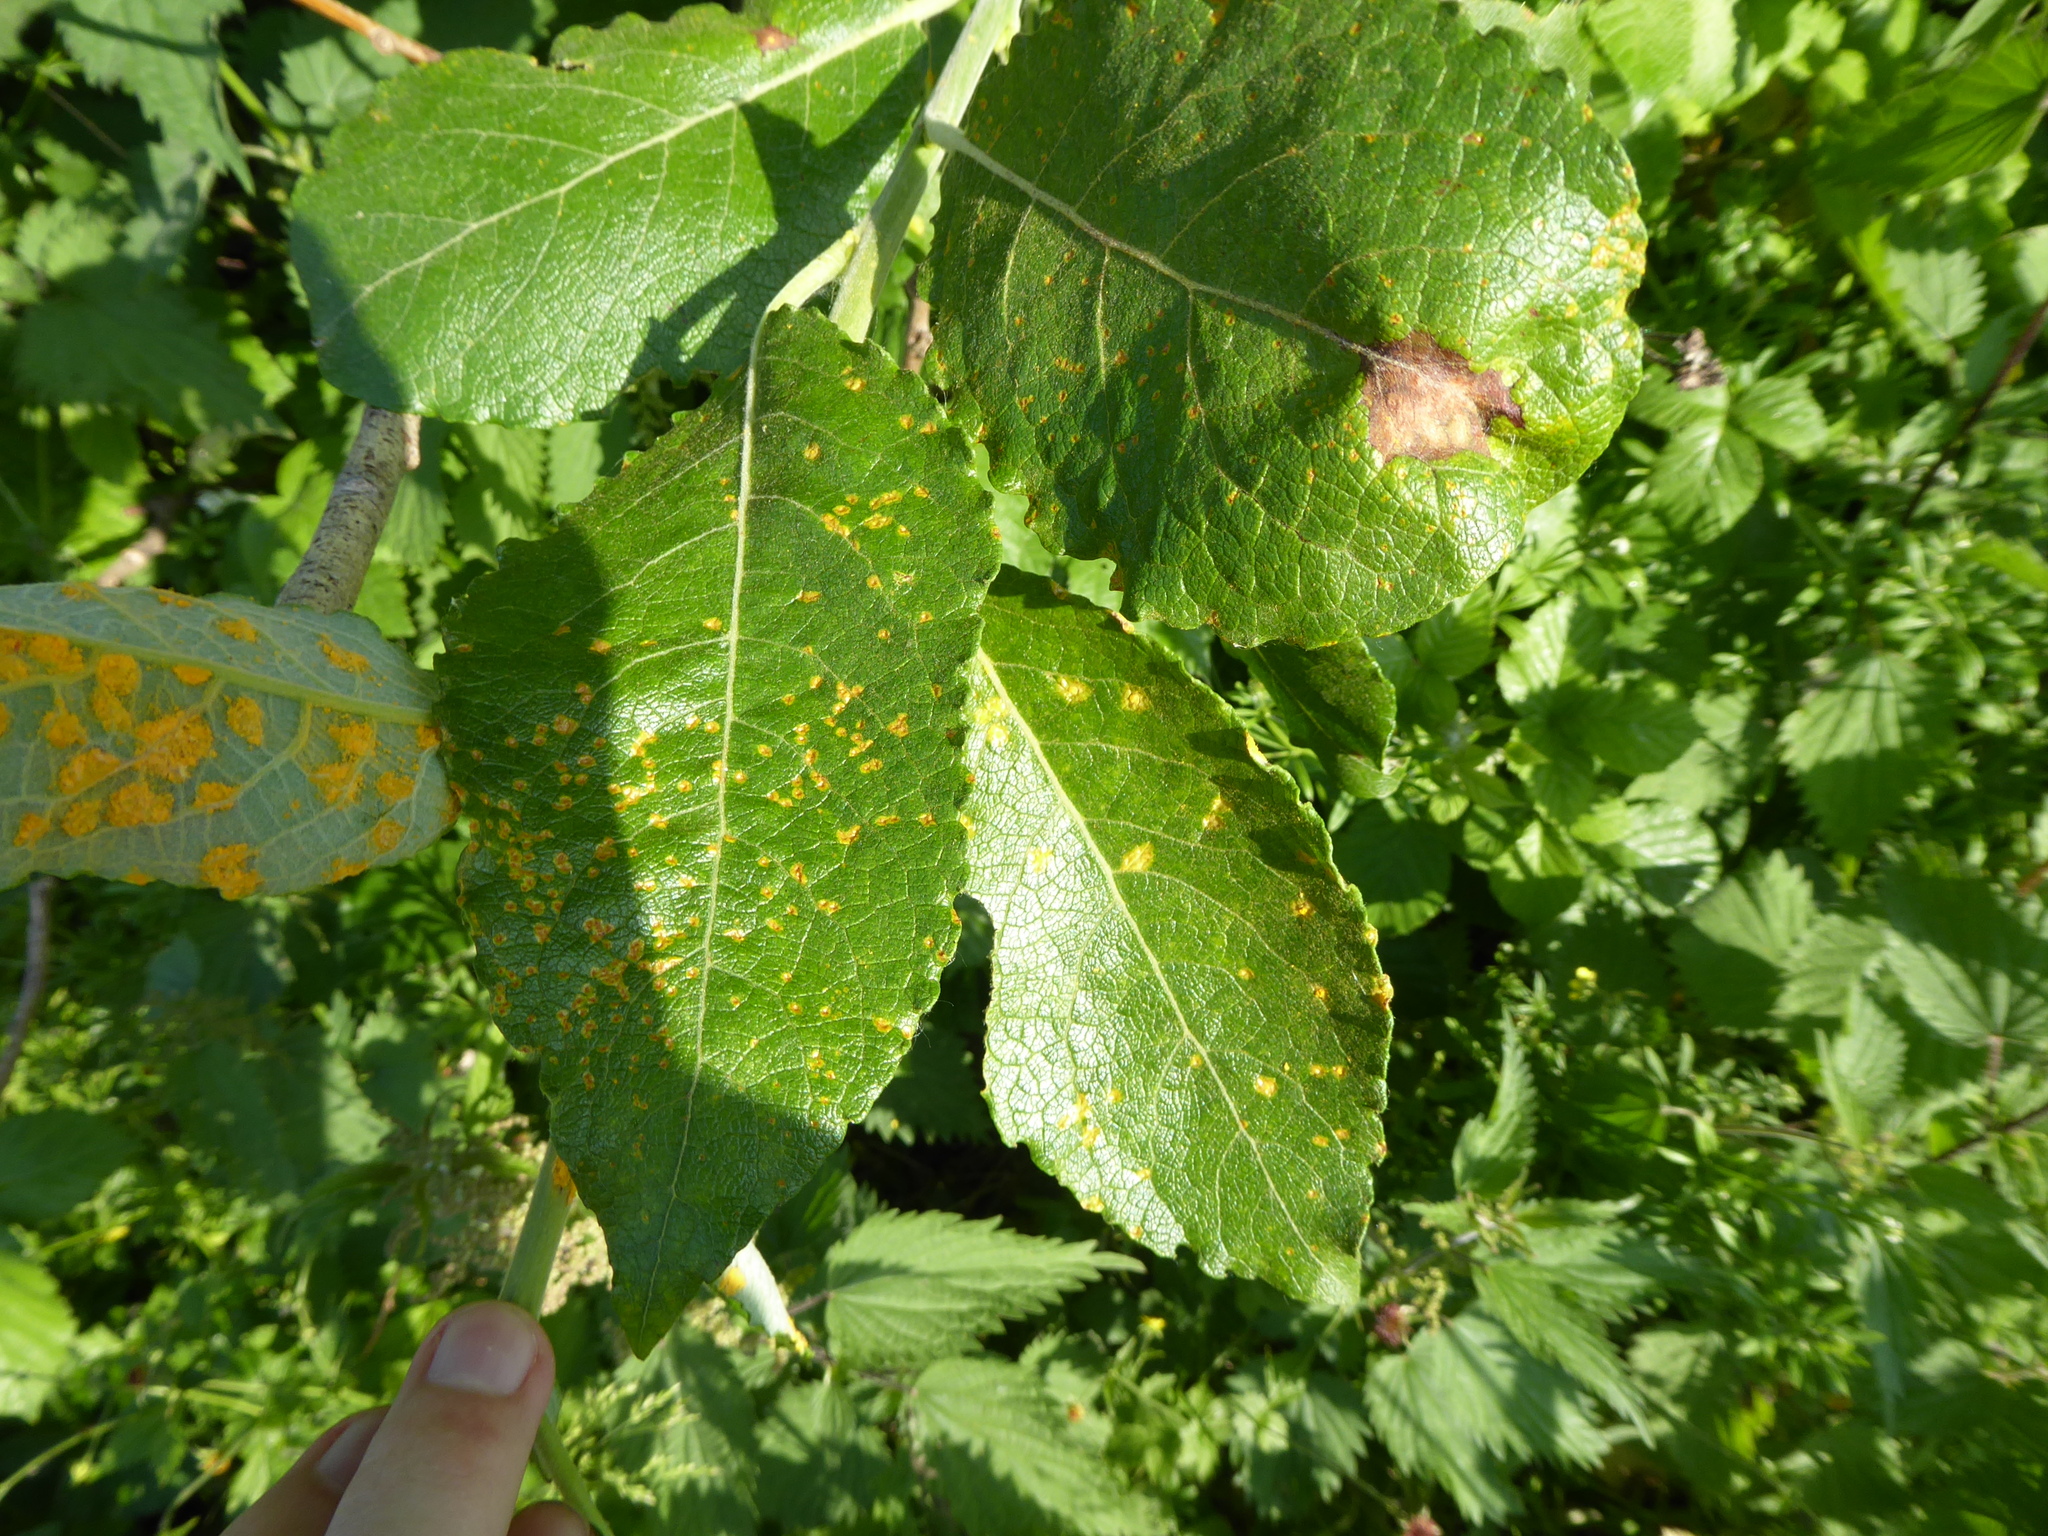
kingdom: Fungi
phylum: Basidiomycota
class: Pucciniomycetes
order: Pucciniales
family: Melampsoraceae
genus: Melampsora
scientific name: Melampsora
